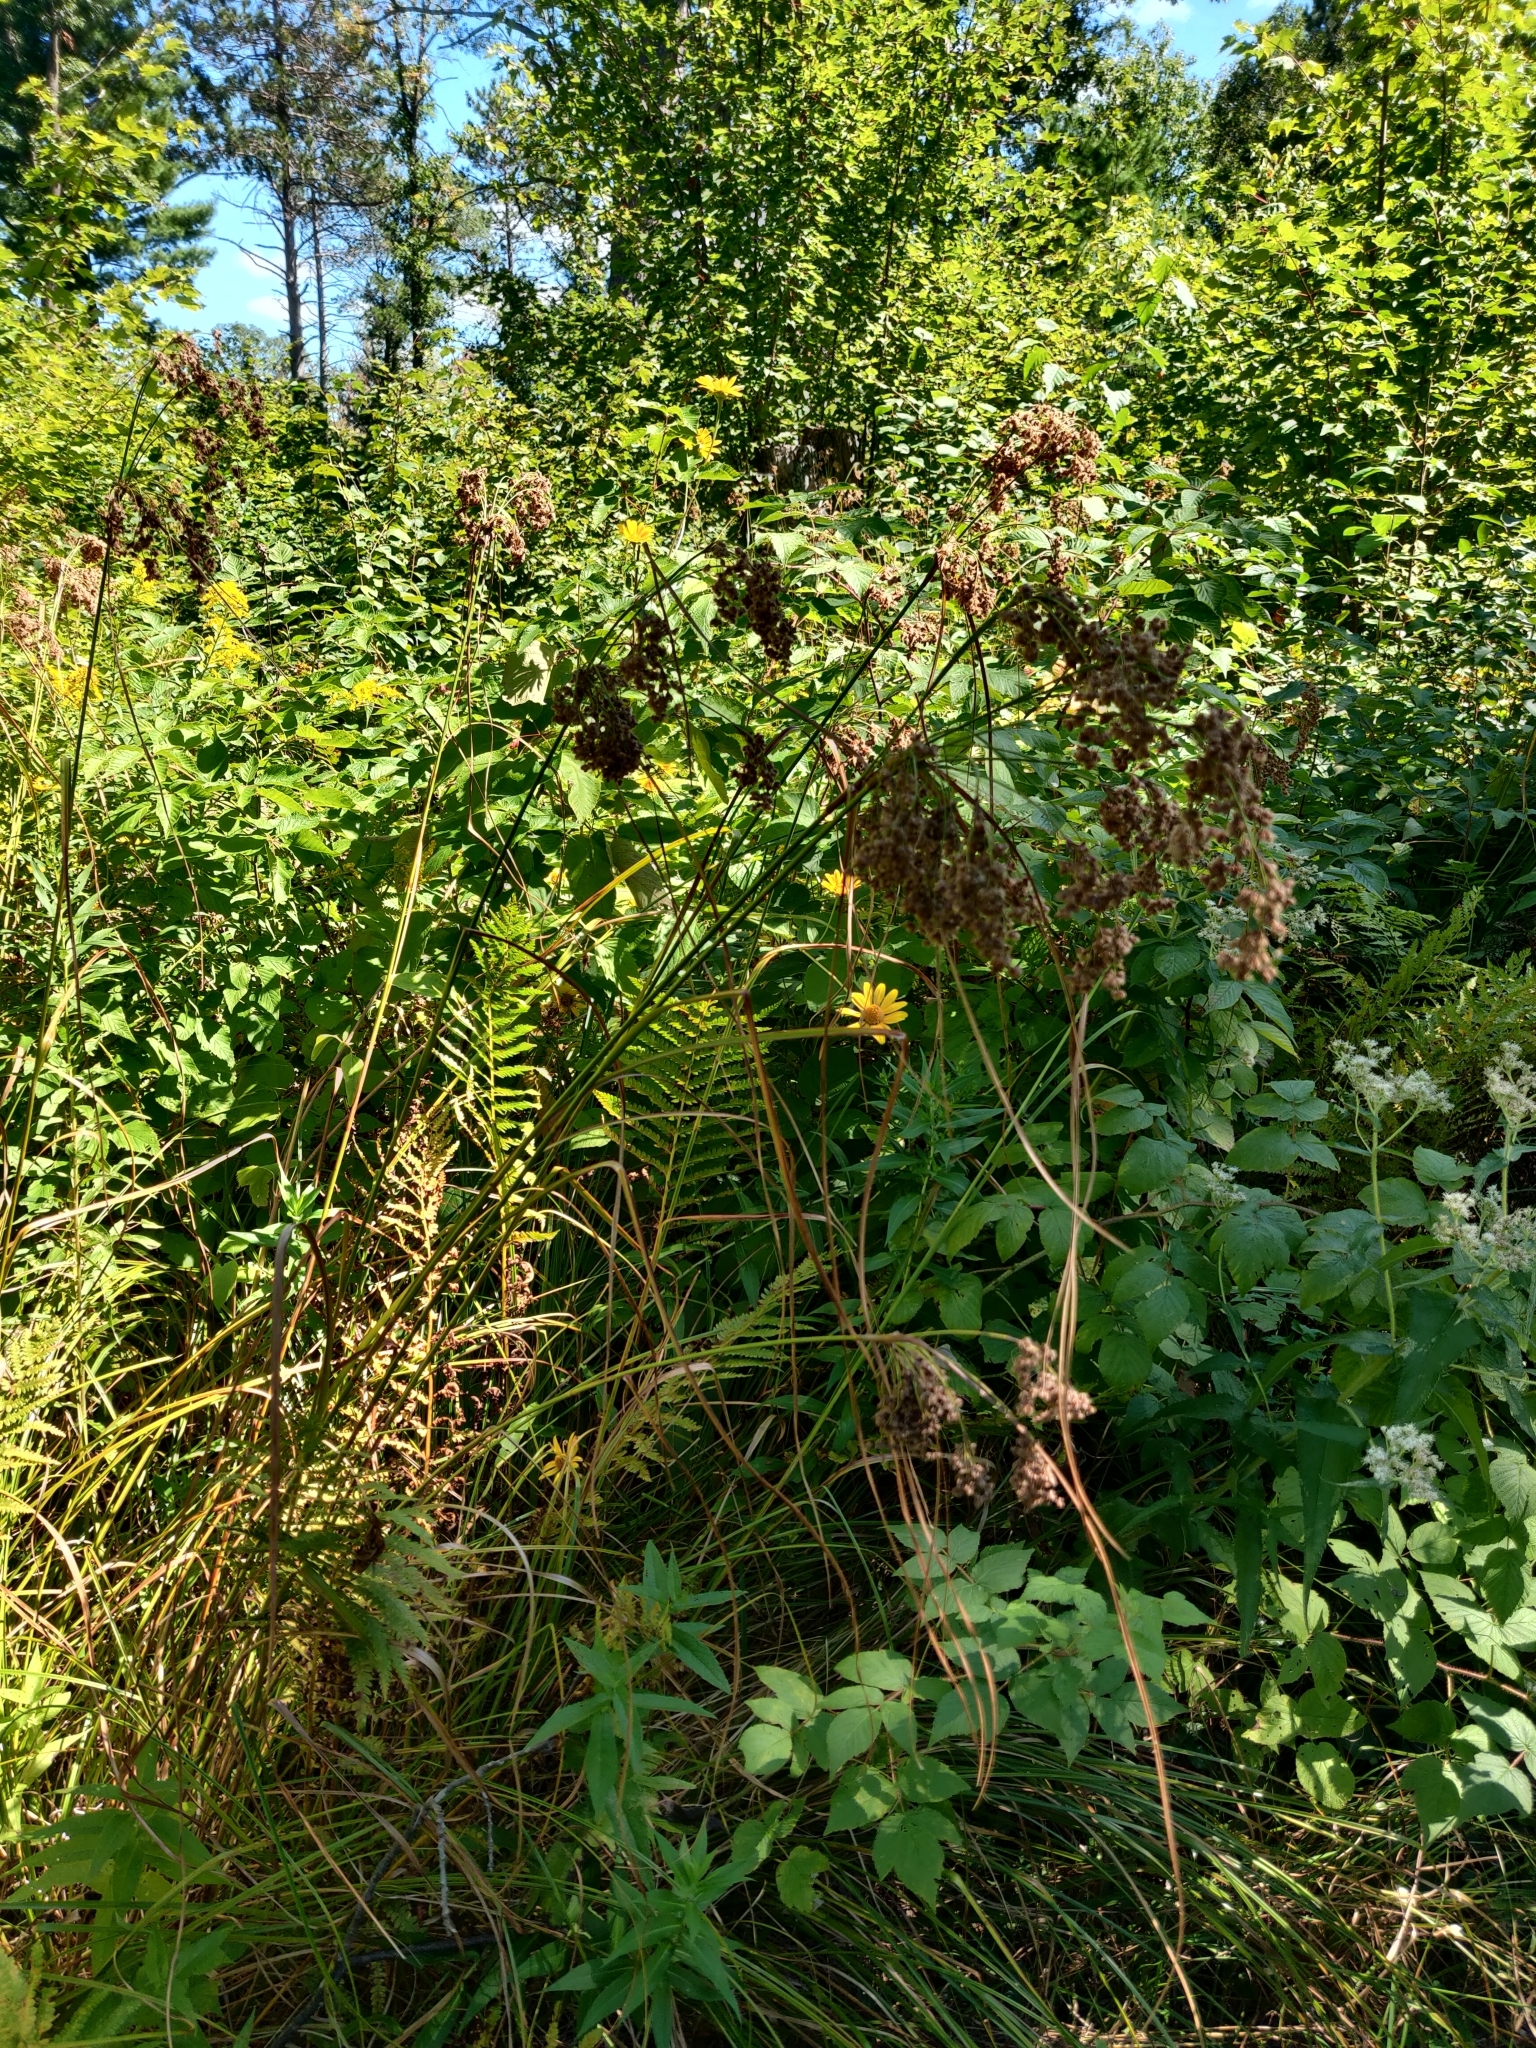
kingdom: Plantae
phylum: Tracheophyta
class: Liliopsida
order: Poales
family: Cyperaceae
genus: Scirpus
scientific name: Scirpus cyperinus
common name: Black-sheathed bulrush
